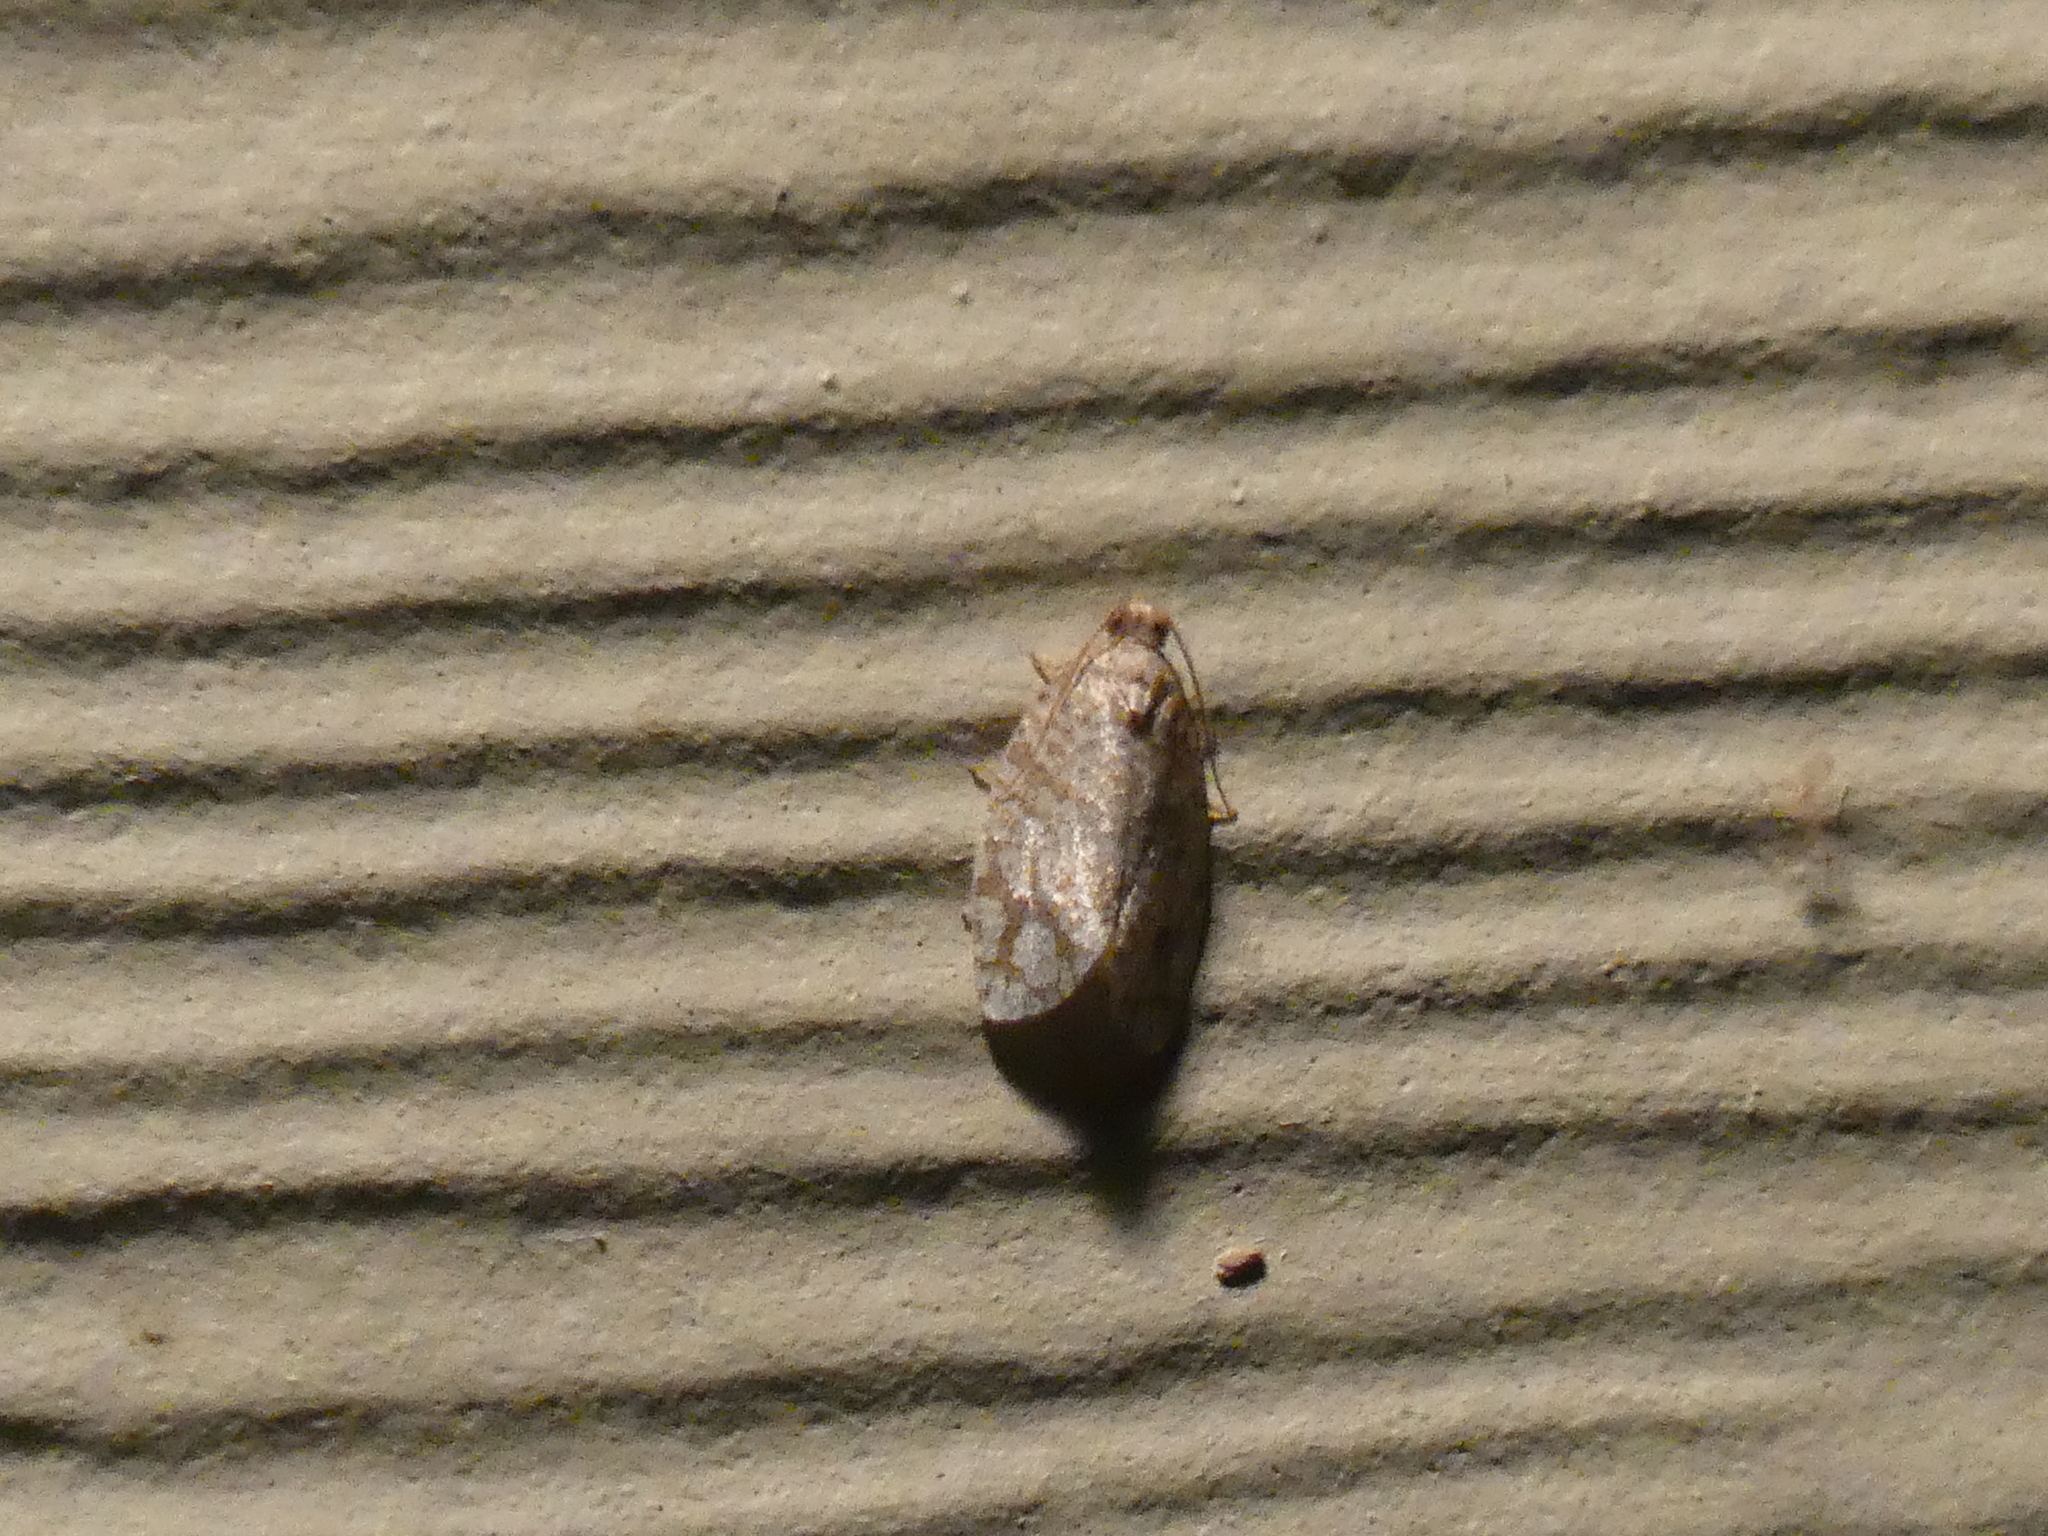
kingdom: Animalia
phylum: Arthropoda
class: Insecta
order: Lepidoptera
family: Tortricidae
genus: Argyrotaenia
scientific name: Argyrotaenia quercifoliana
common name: Yellow-winged oak leafroller moth
